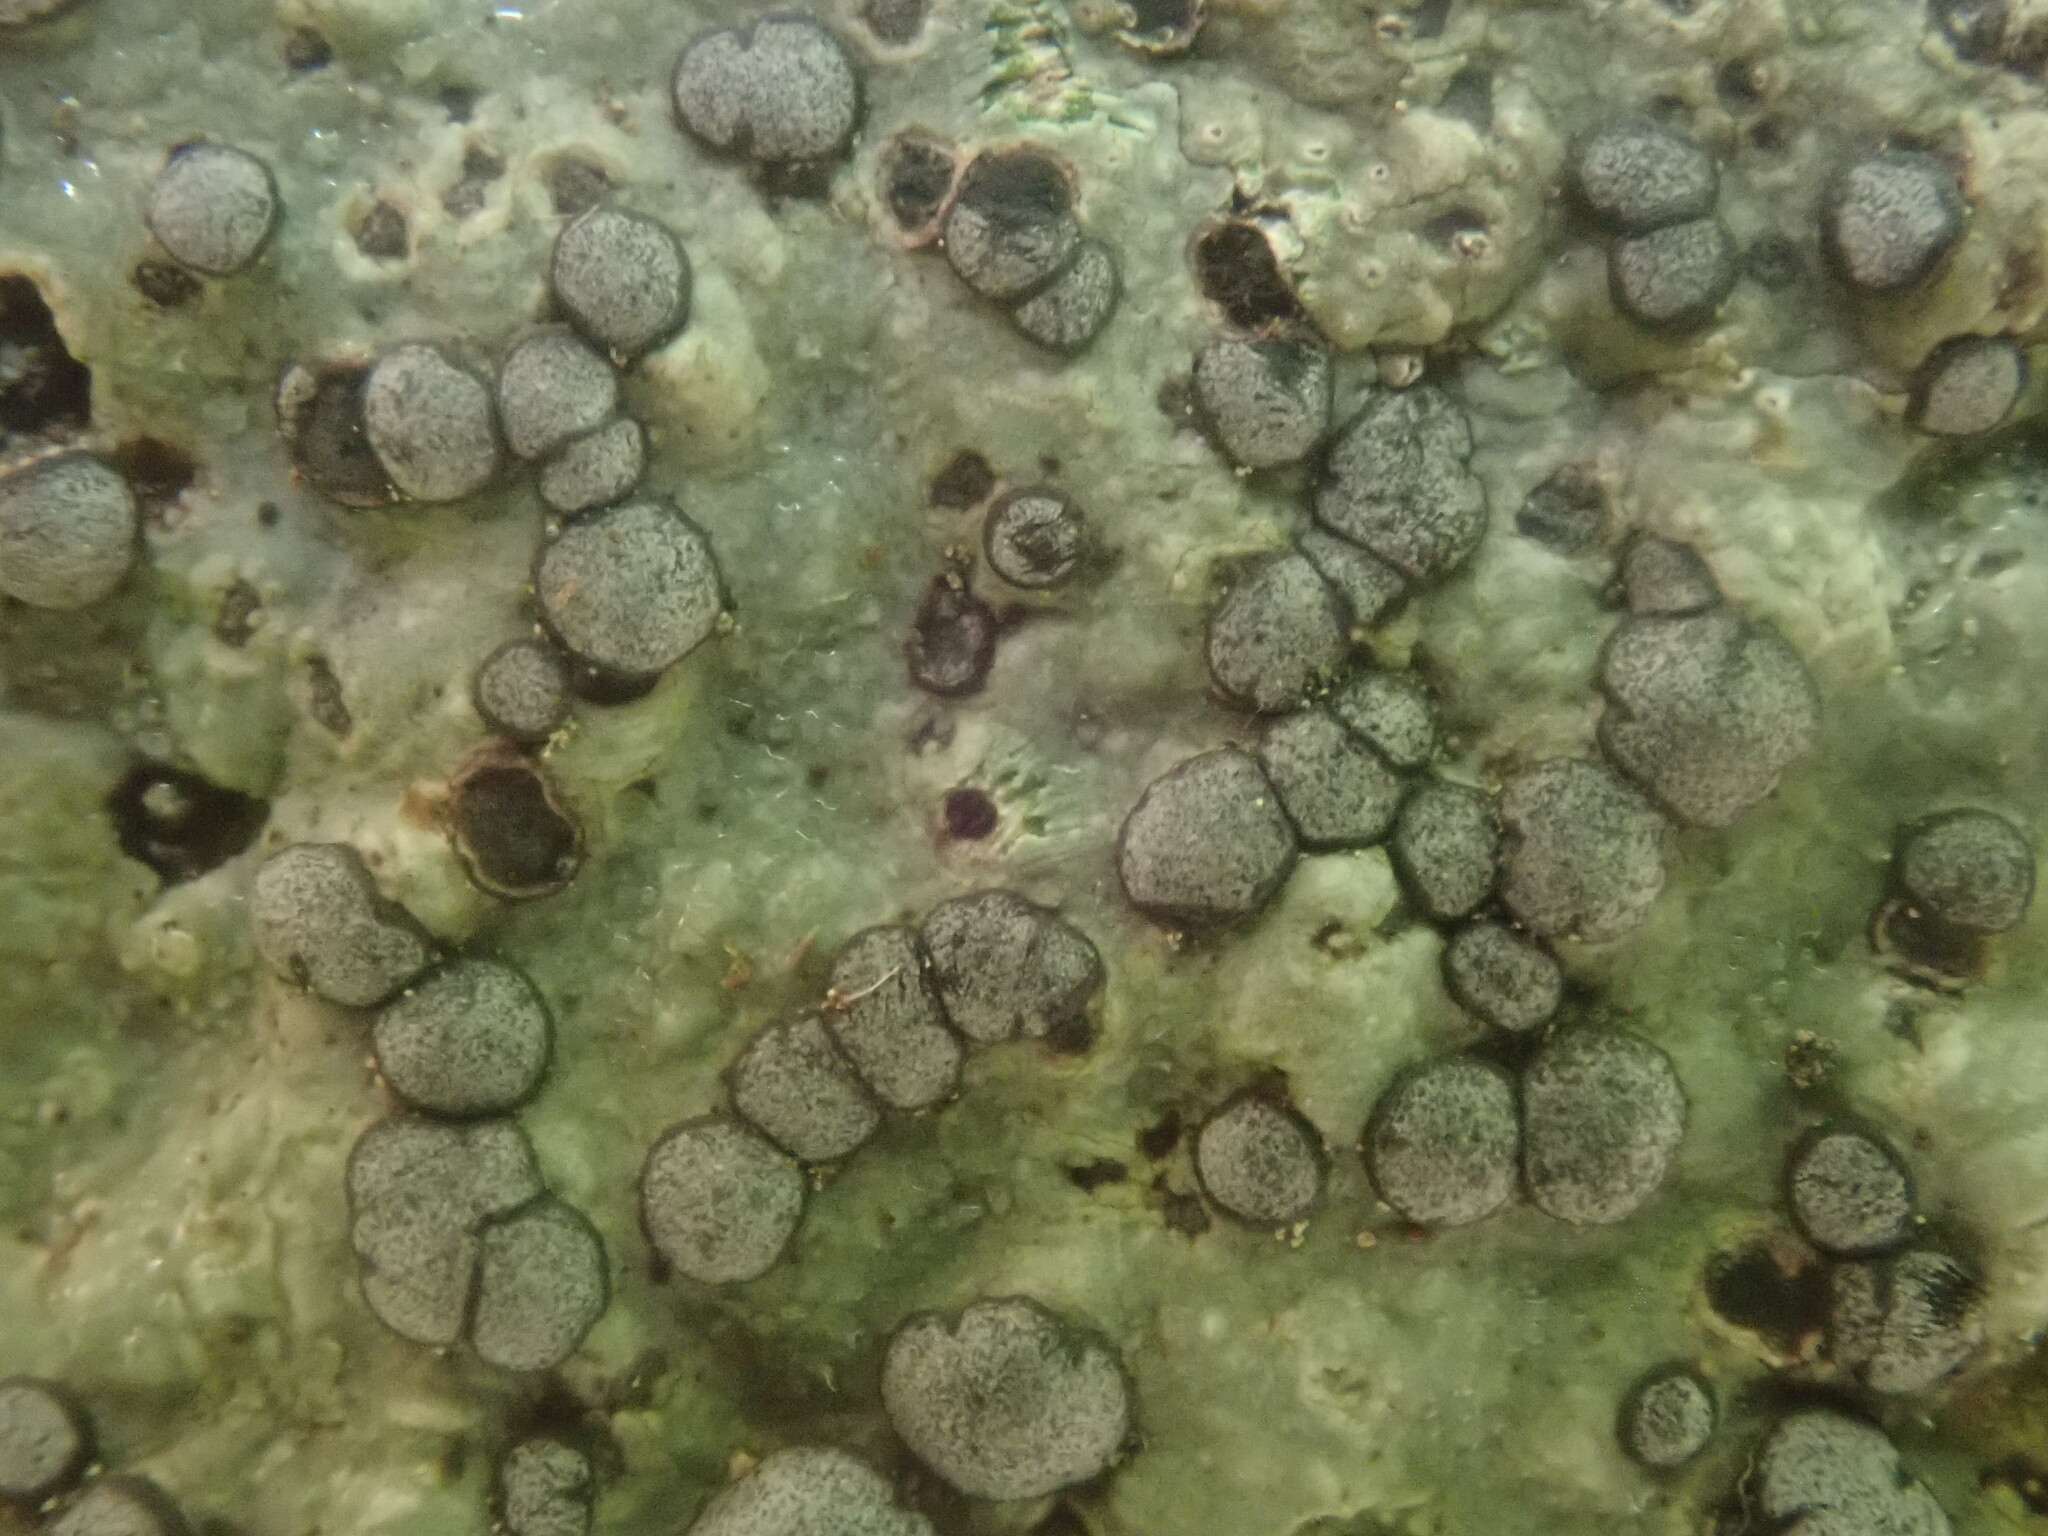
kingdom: Fungi
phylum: Ascomycota
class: Lecanoromycetes
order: Lecideales
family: Lecideaceae
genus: Porpidia
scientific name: Porpidia albocaerulescens
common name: Smokey-eyed boulder lichen
